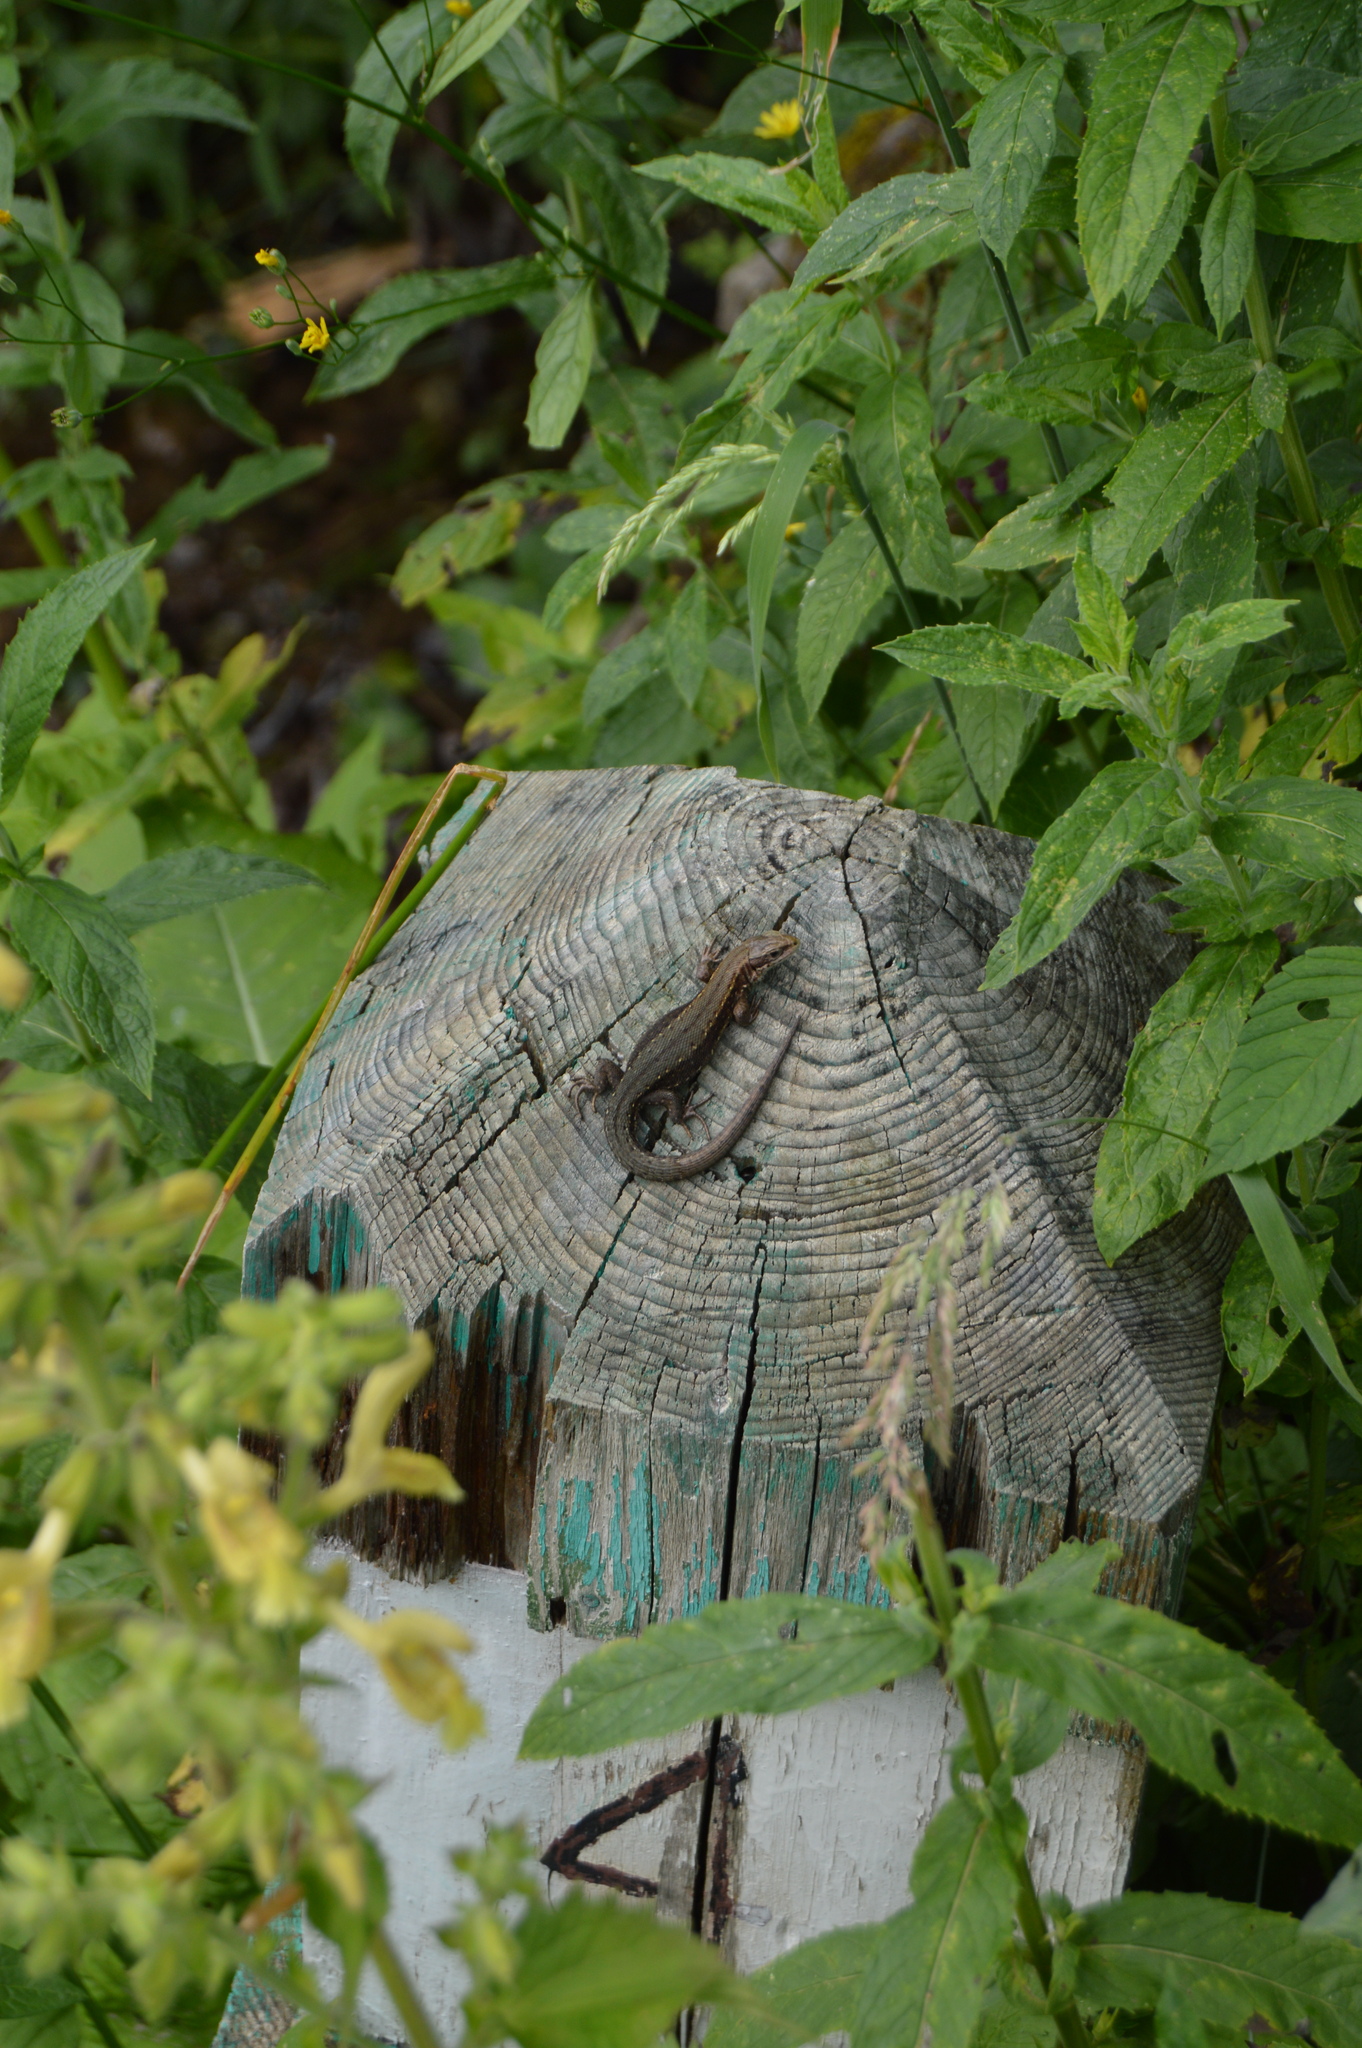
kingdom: Animalia
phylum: Chordata
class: Squamata
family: Lacertidae
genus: Zootoca
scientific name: Zootoca vivipara
